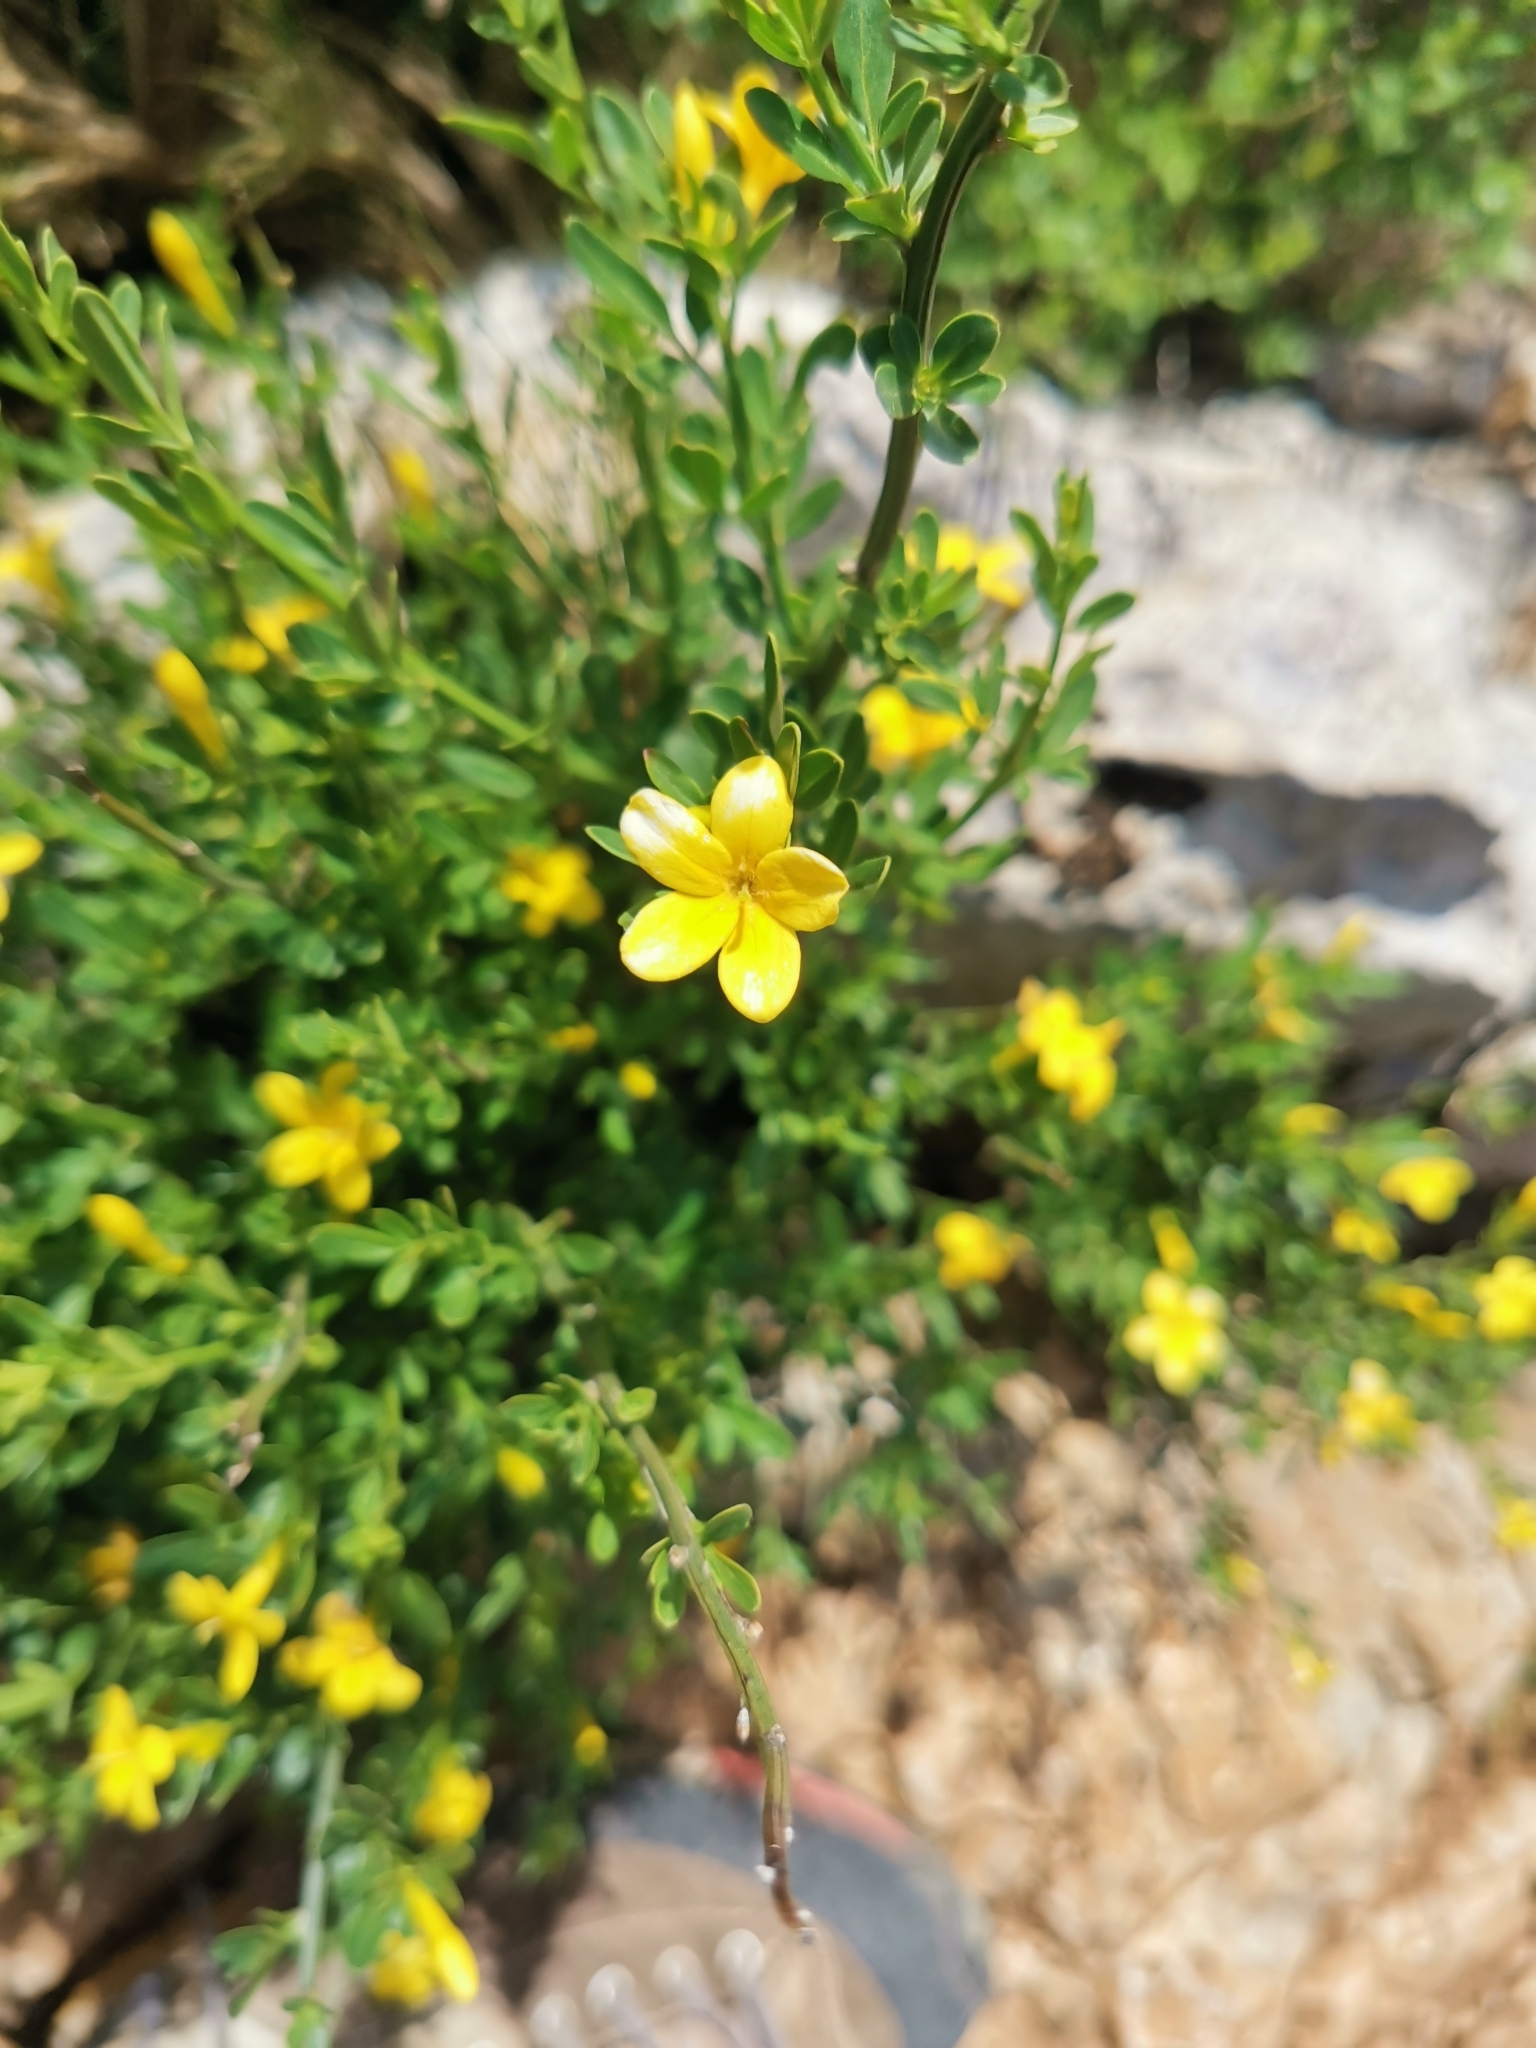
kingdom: Plantae
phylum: Tracheophyta
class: Magnoliopsida
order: Lamiales
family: Oleaceae
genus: Chrysojasminum
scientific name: Chrysojasminum fruticans
